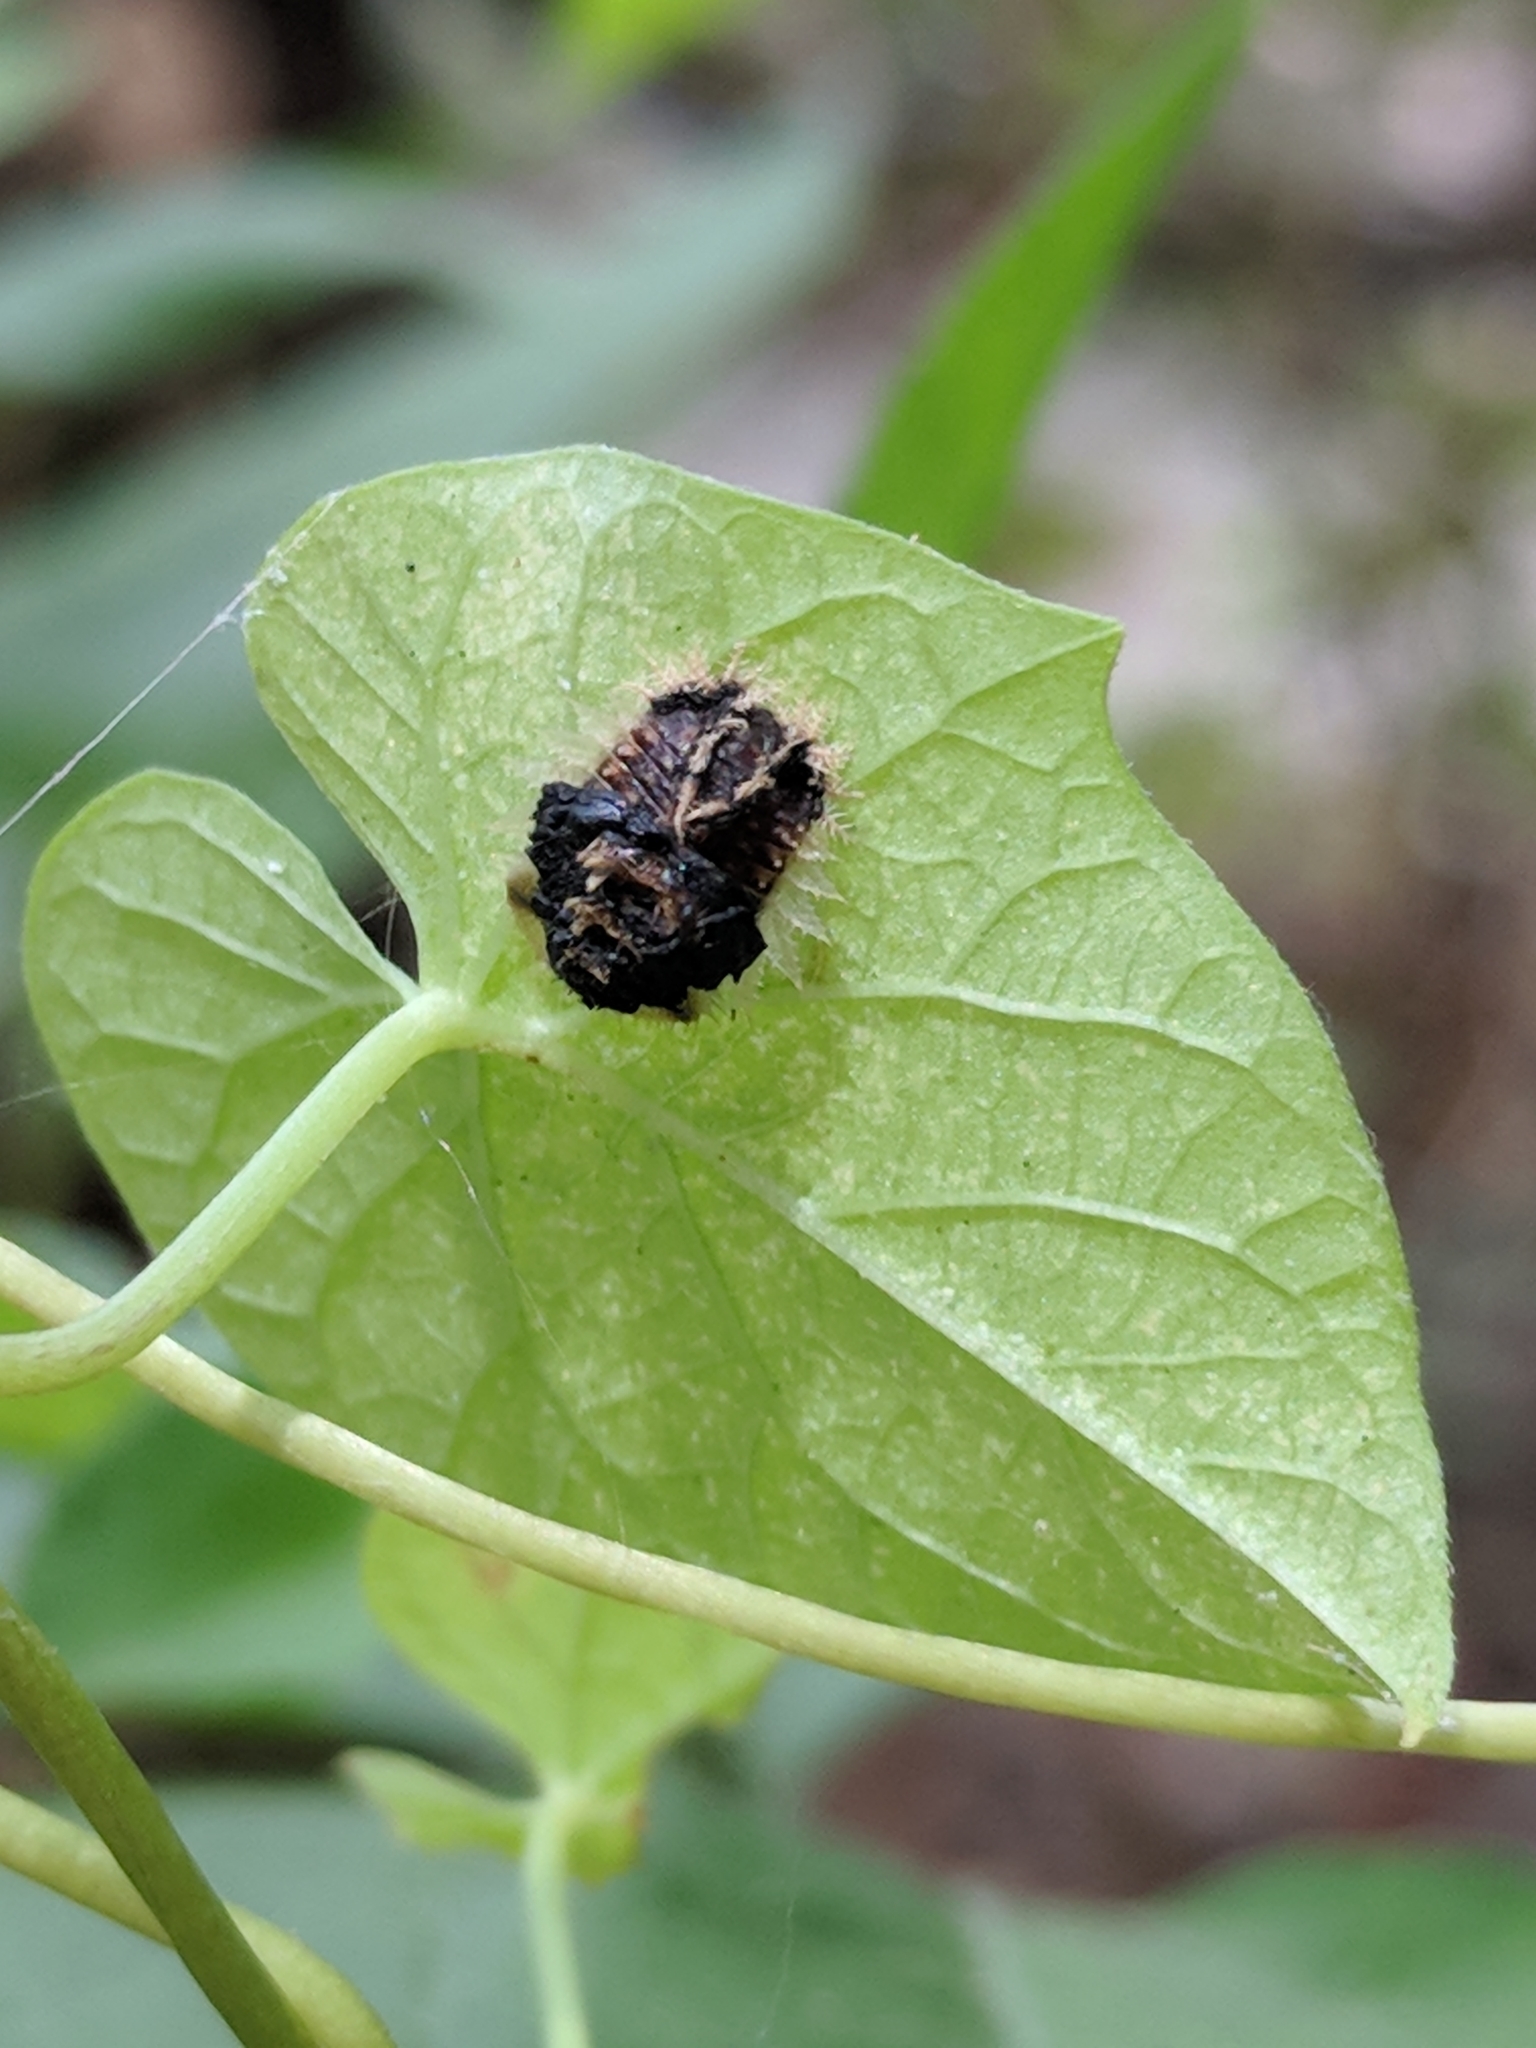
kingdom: Animalia
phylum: Arthropoda
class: Insecta
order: Coleoptera
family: Chrysomelidae
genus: Charidotella
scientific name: Charidotella sexpunctata
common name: Golden tortoise beetle
